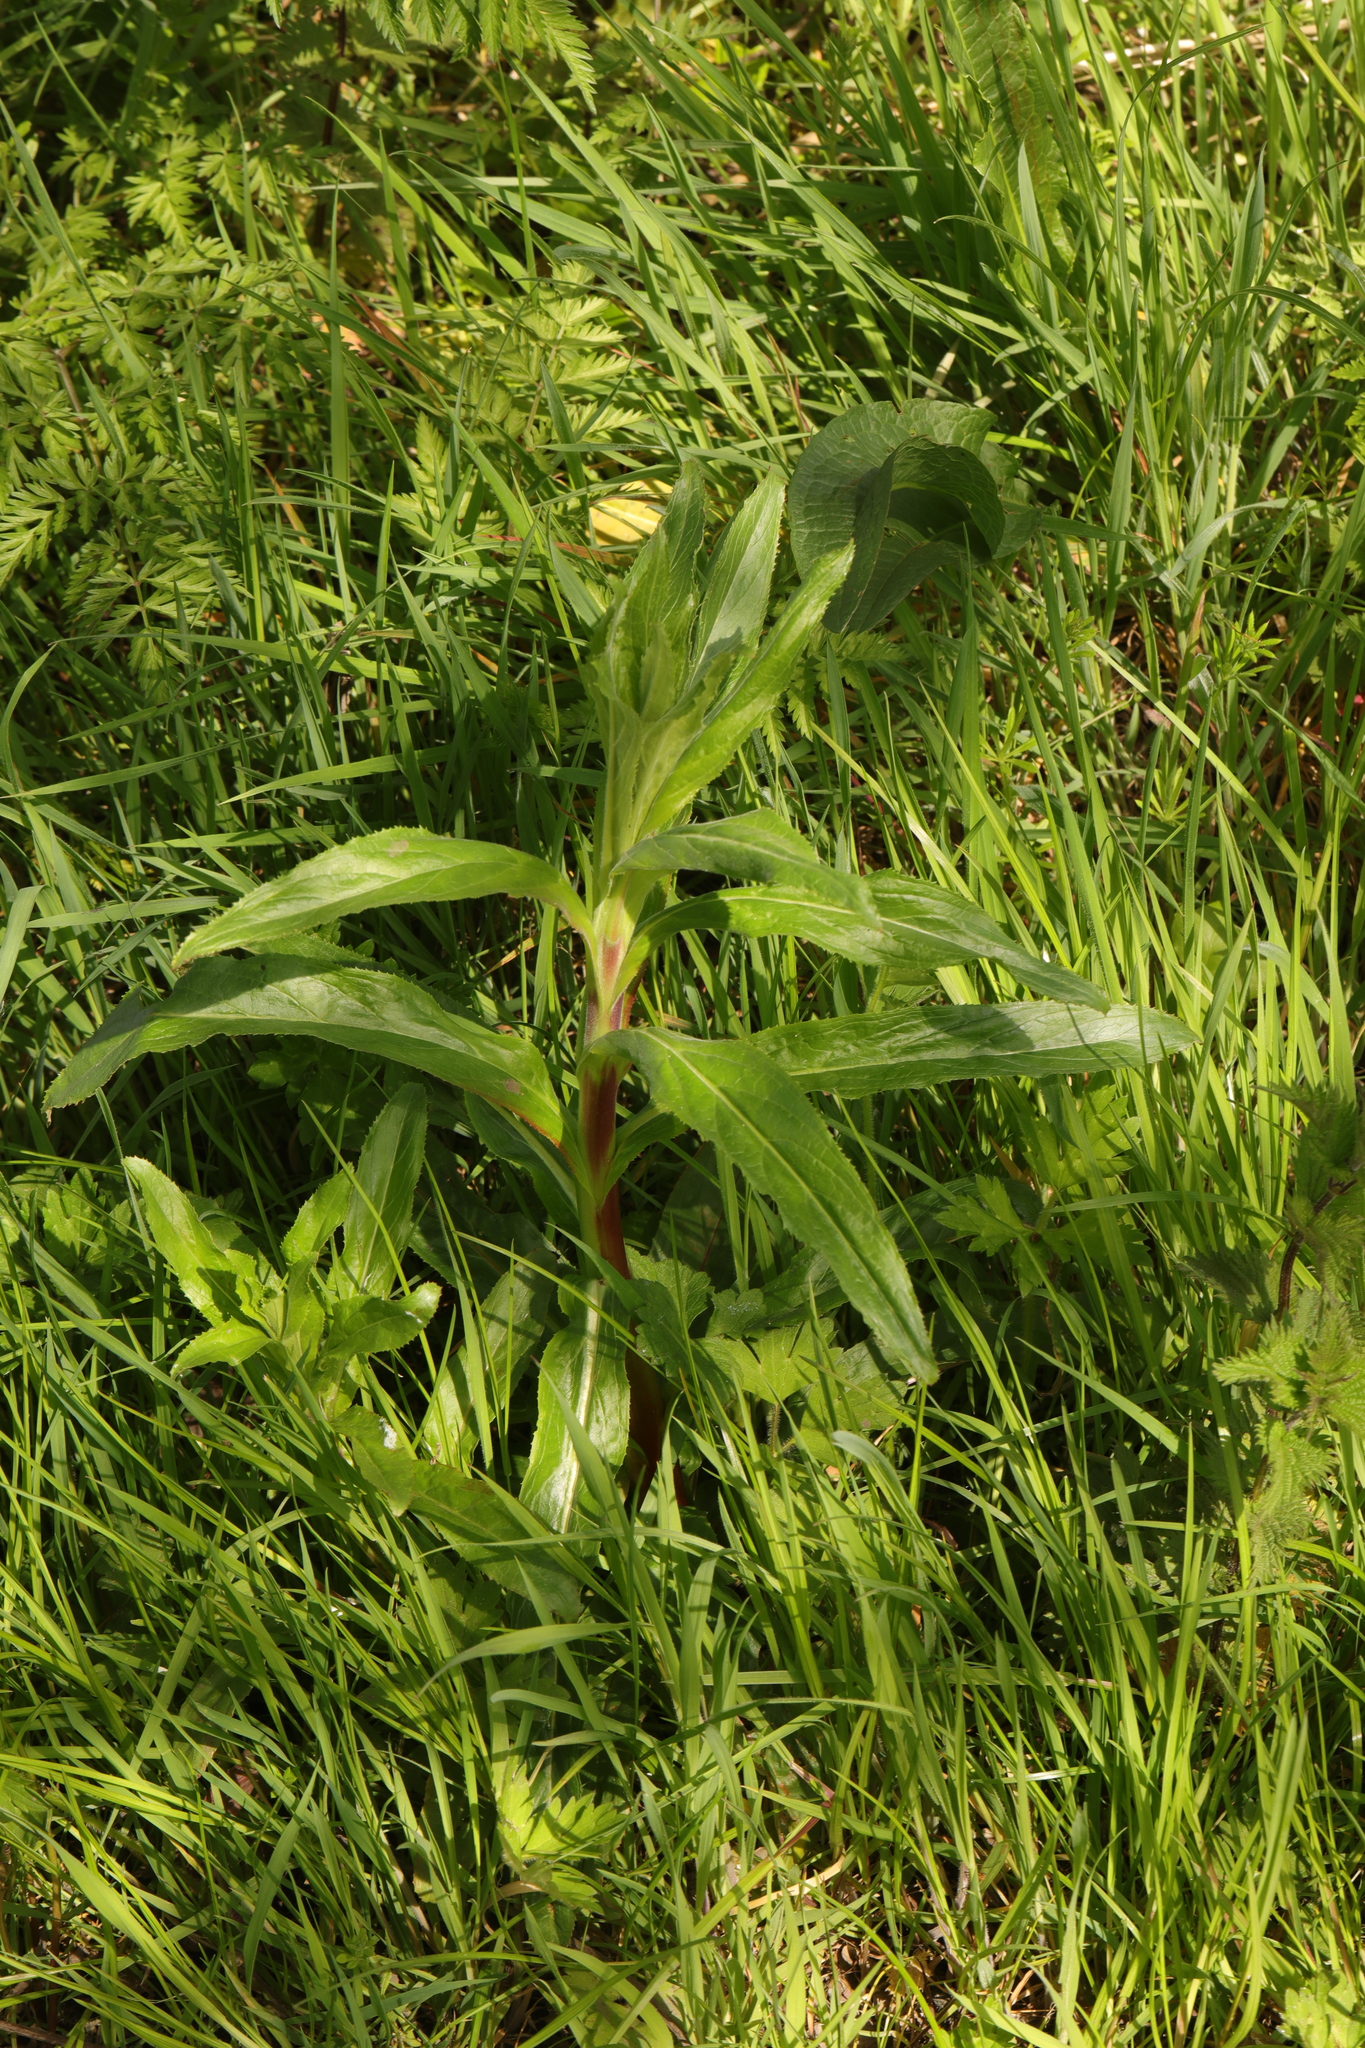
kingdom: Plantae
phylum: Tracheophyta
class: Magnoliopsida
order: Myrtales
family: Onagraceae
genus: Epilobium
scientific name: Epilobium hirsutum
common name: Great willowherb
